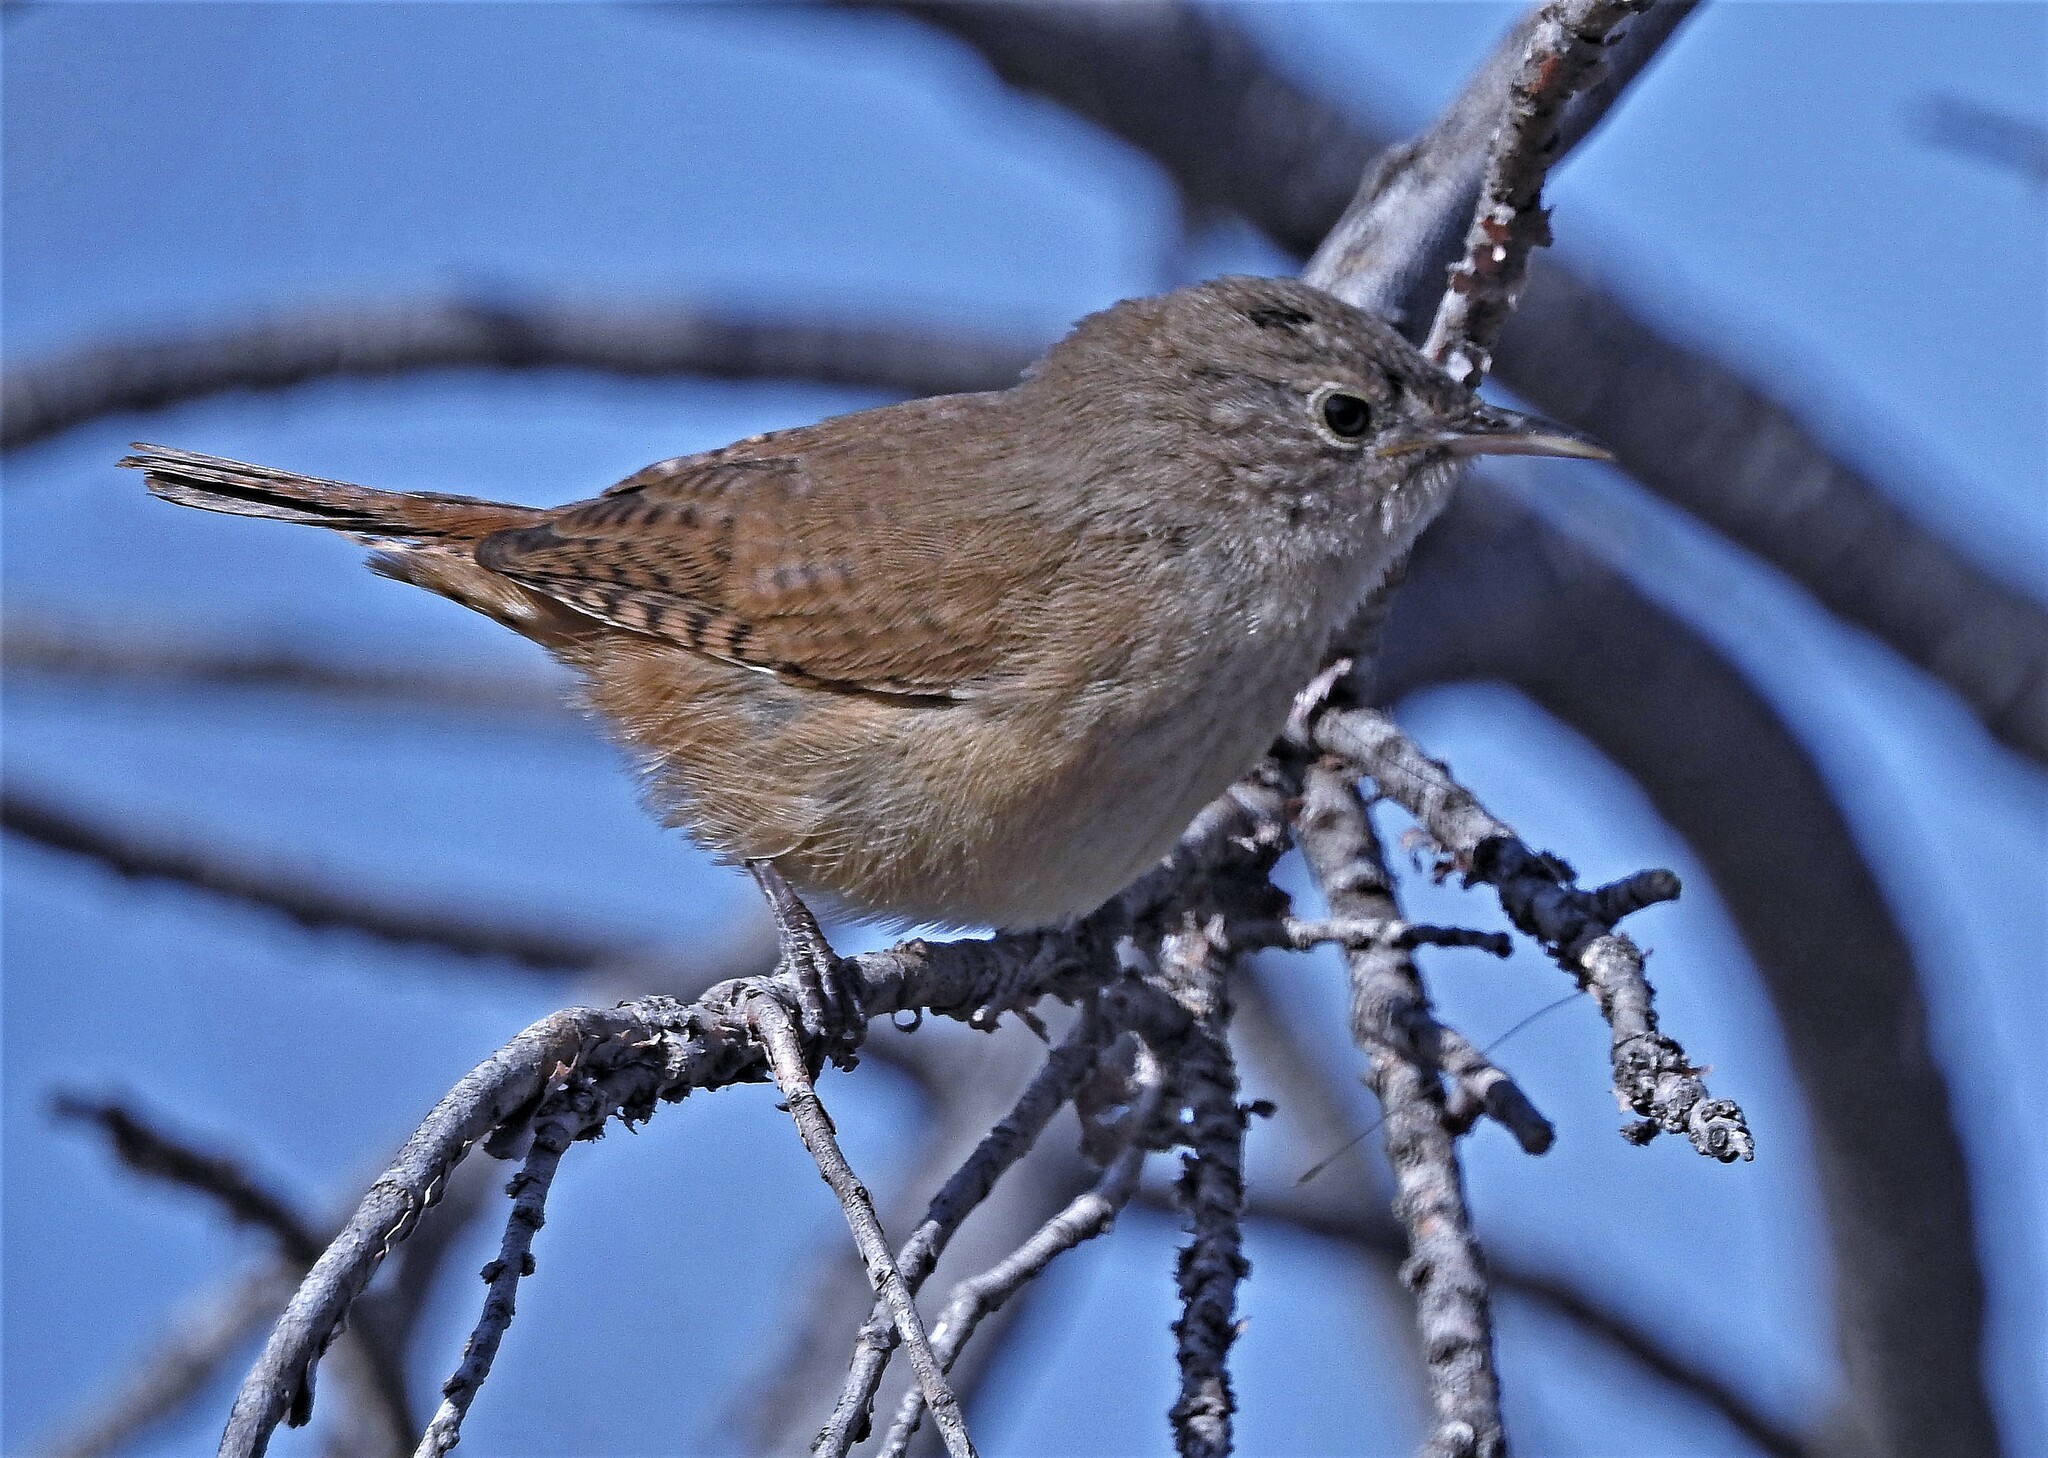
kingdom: Animalia
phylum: Chordata
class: Aves
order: Passeriformes
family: Troglodytidae
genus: Troglodytes
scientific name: Troglodytes aedon
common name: House wren
